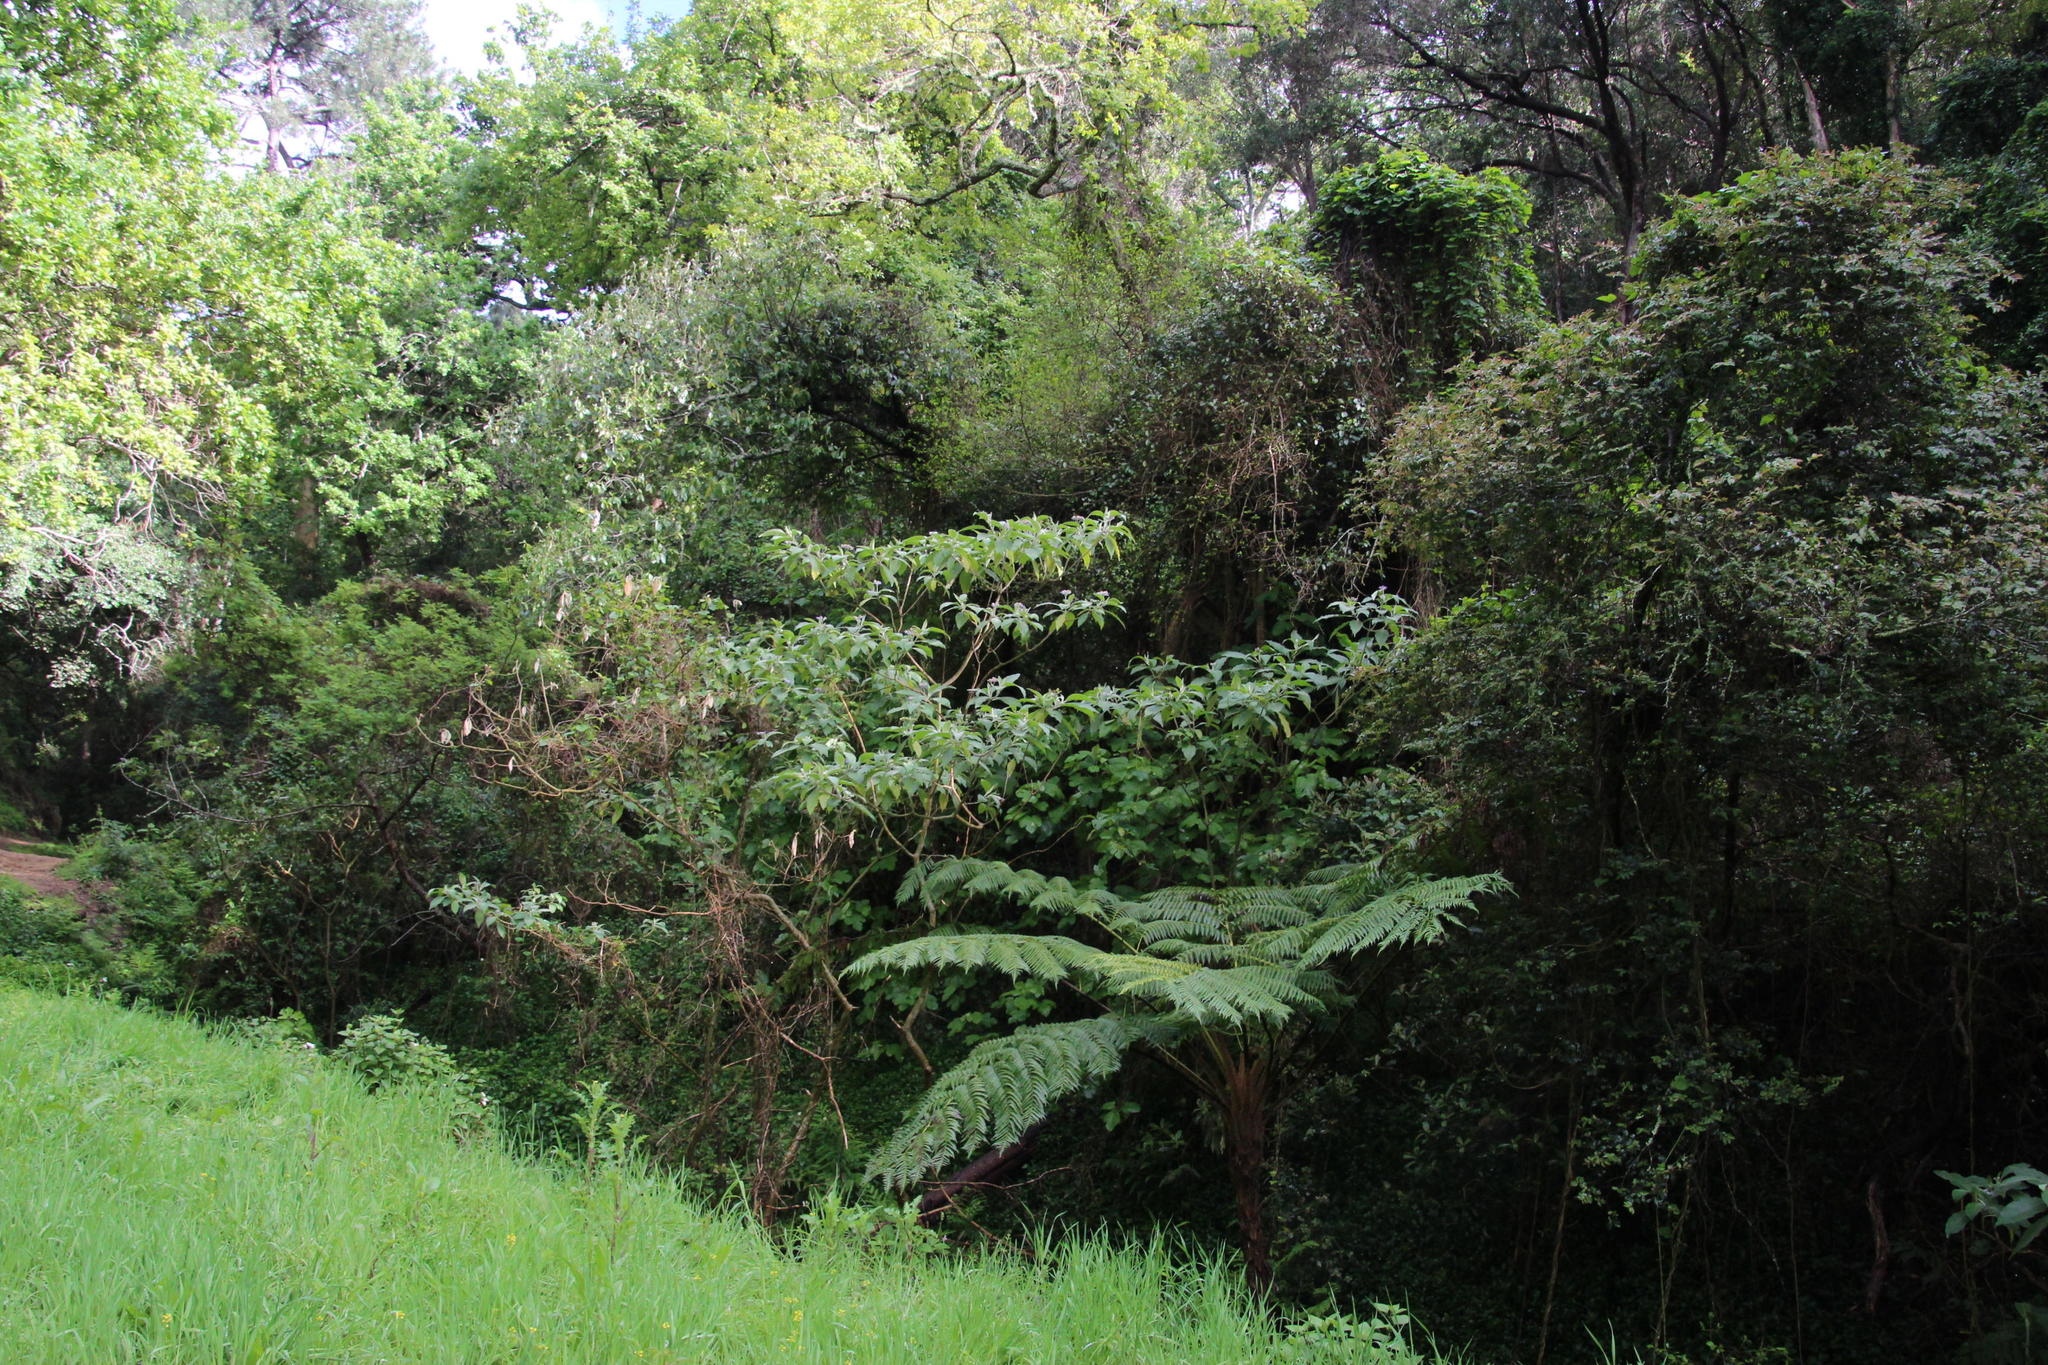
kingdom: Plantae
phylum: Tracheophyta
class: Polypodiopsida
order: Cyatheales
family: Cyatheaceae
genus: Sphaeropteris
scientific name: Sphaeropteris cooperi
